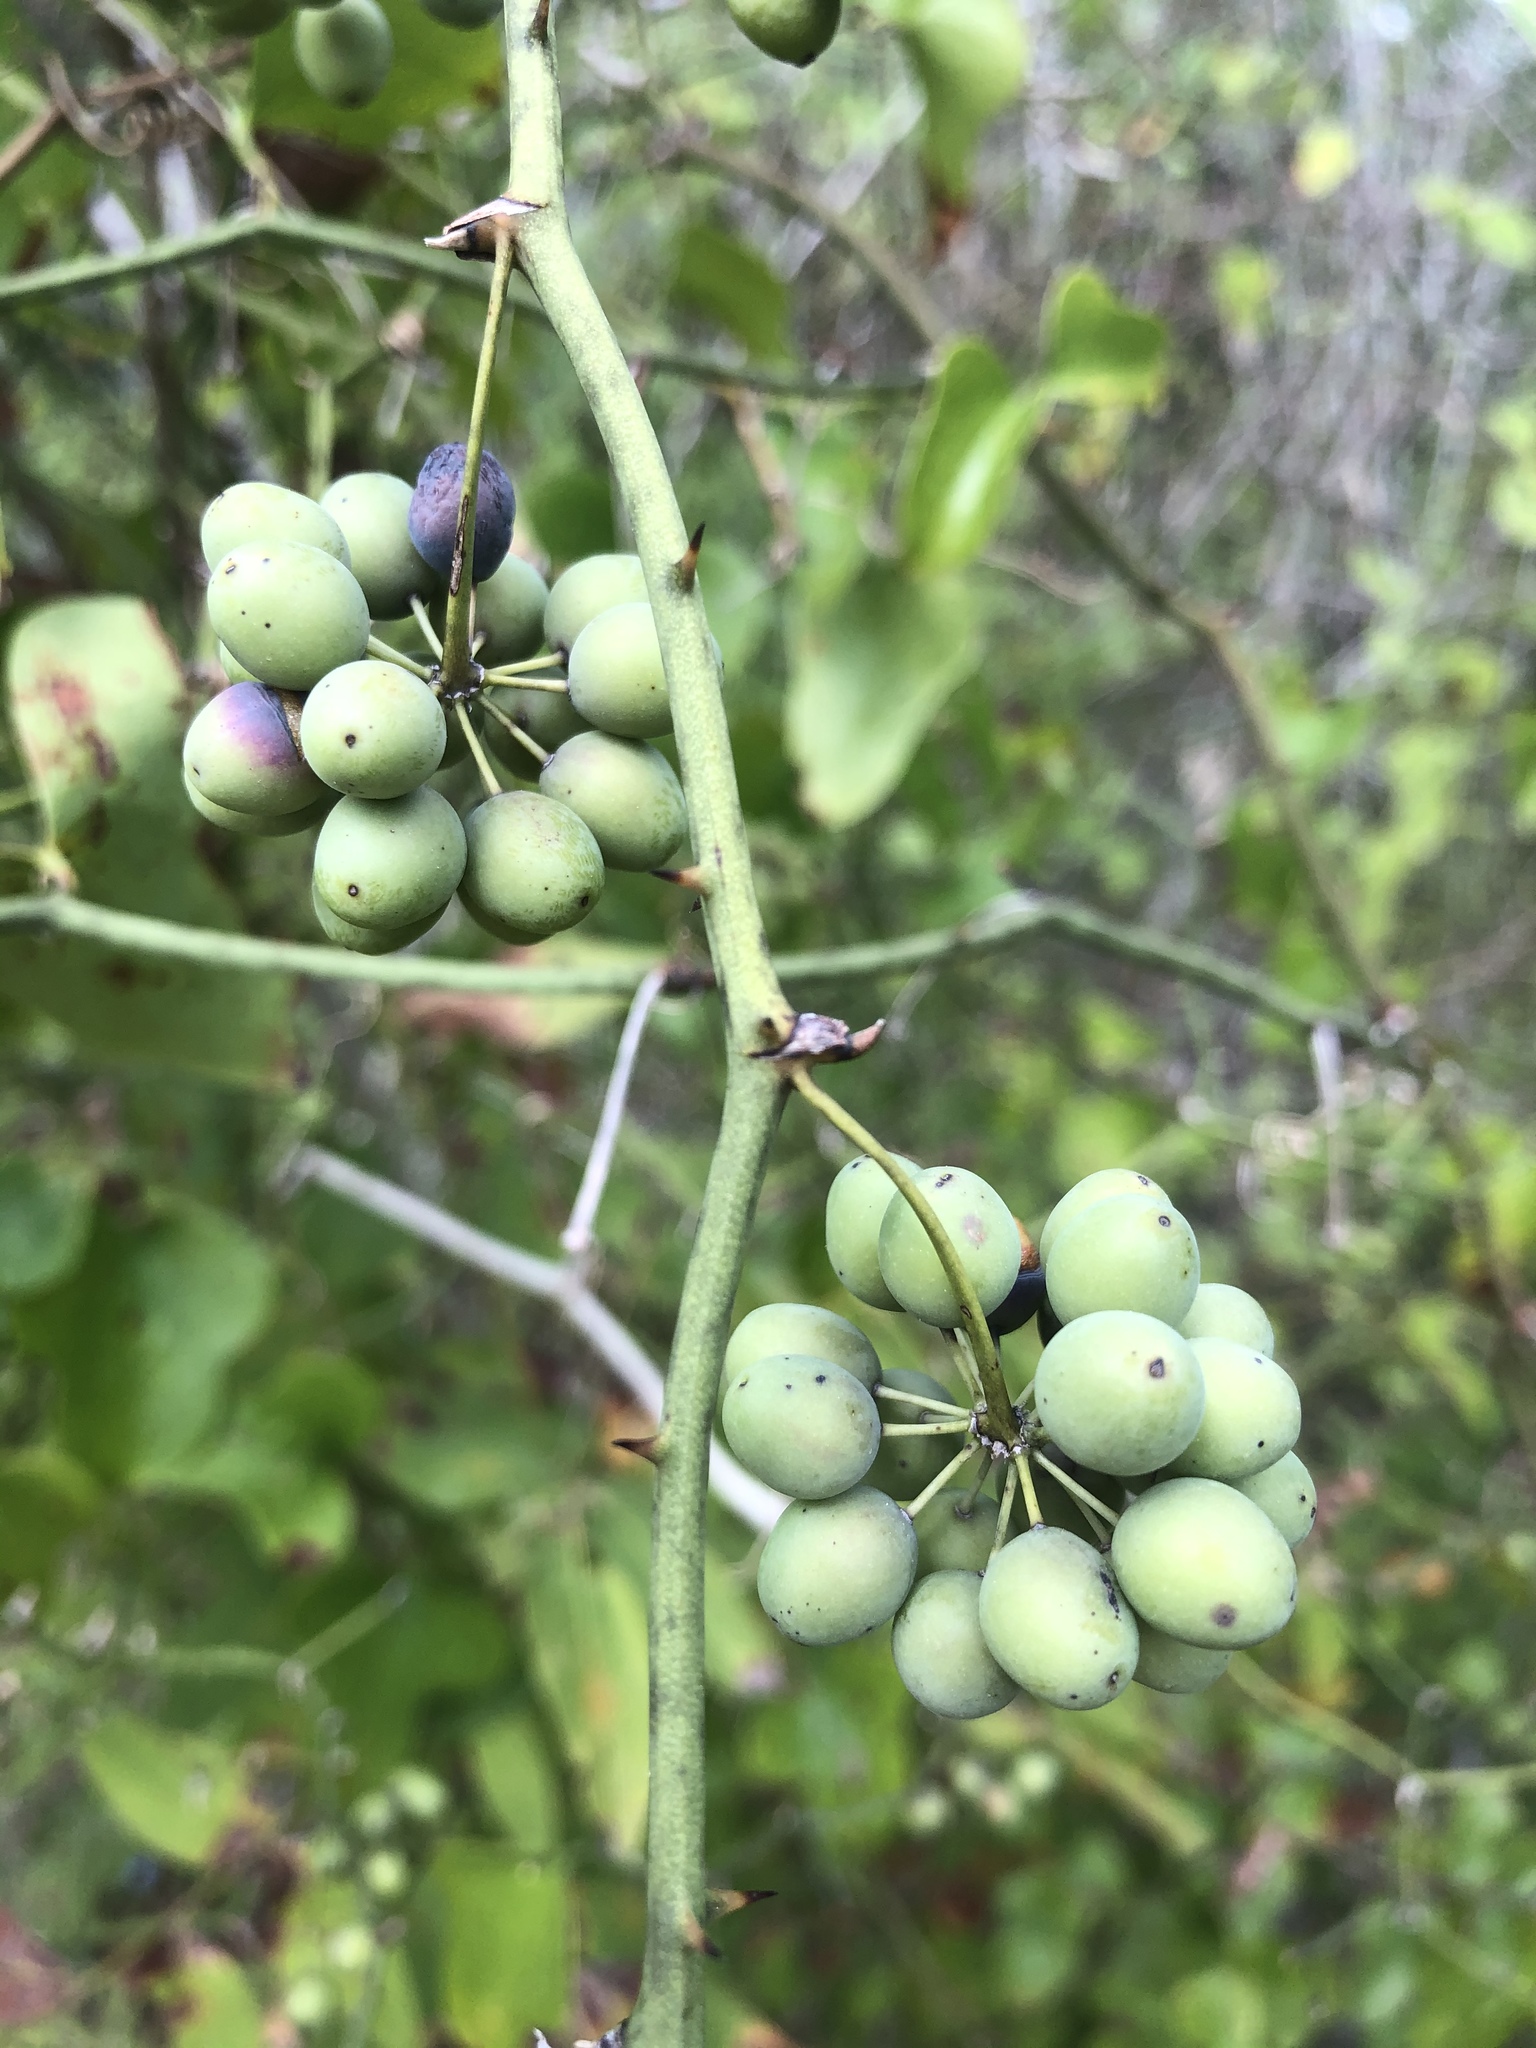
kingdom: Plantae
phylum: Tracheophyta
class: Liliopsida
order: Liliales
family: Smilacaceae
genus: Smilax
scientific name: Smilax bona-nox
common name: Catbrier
